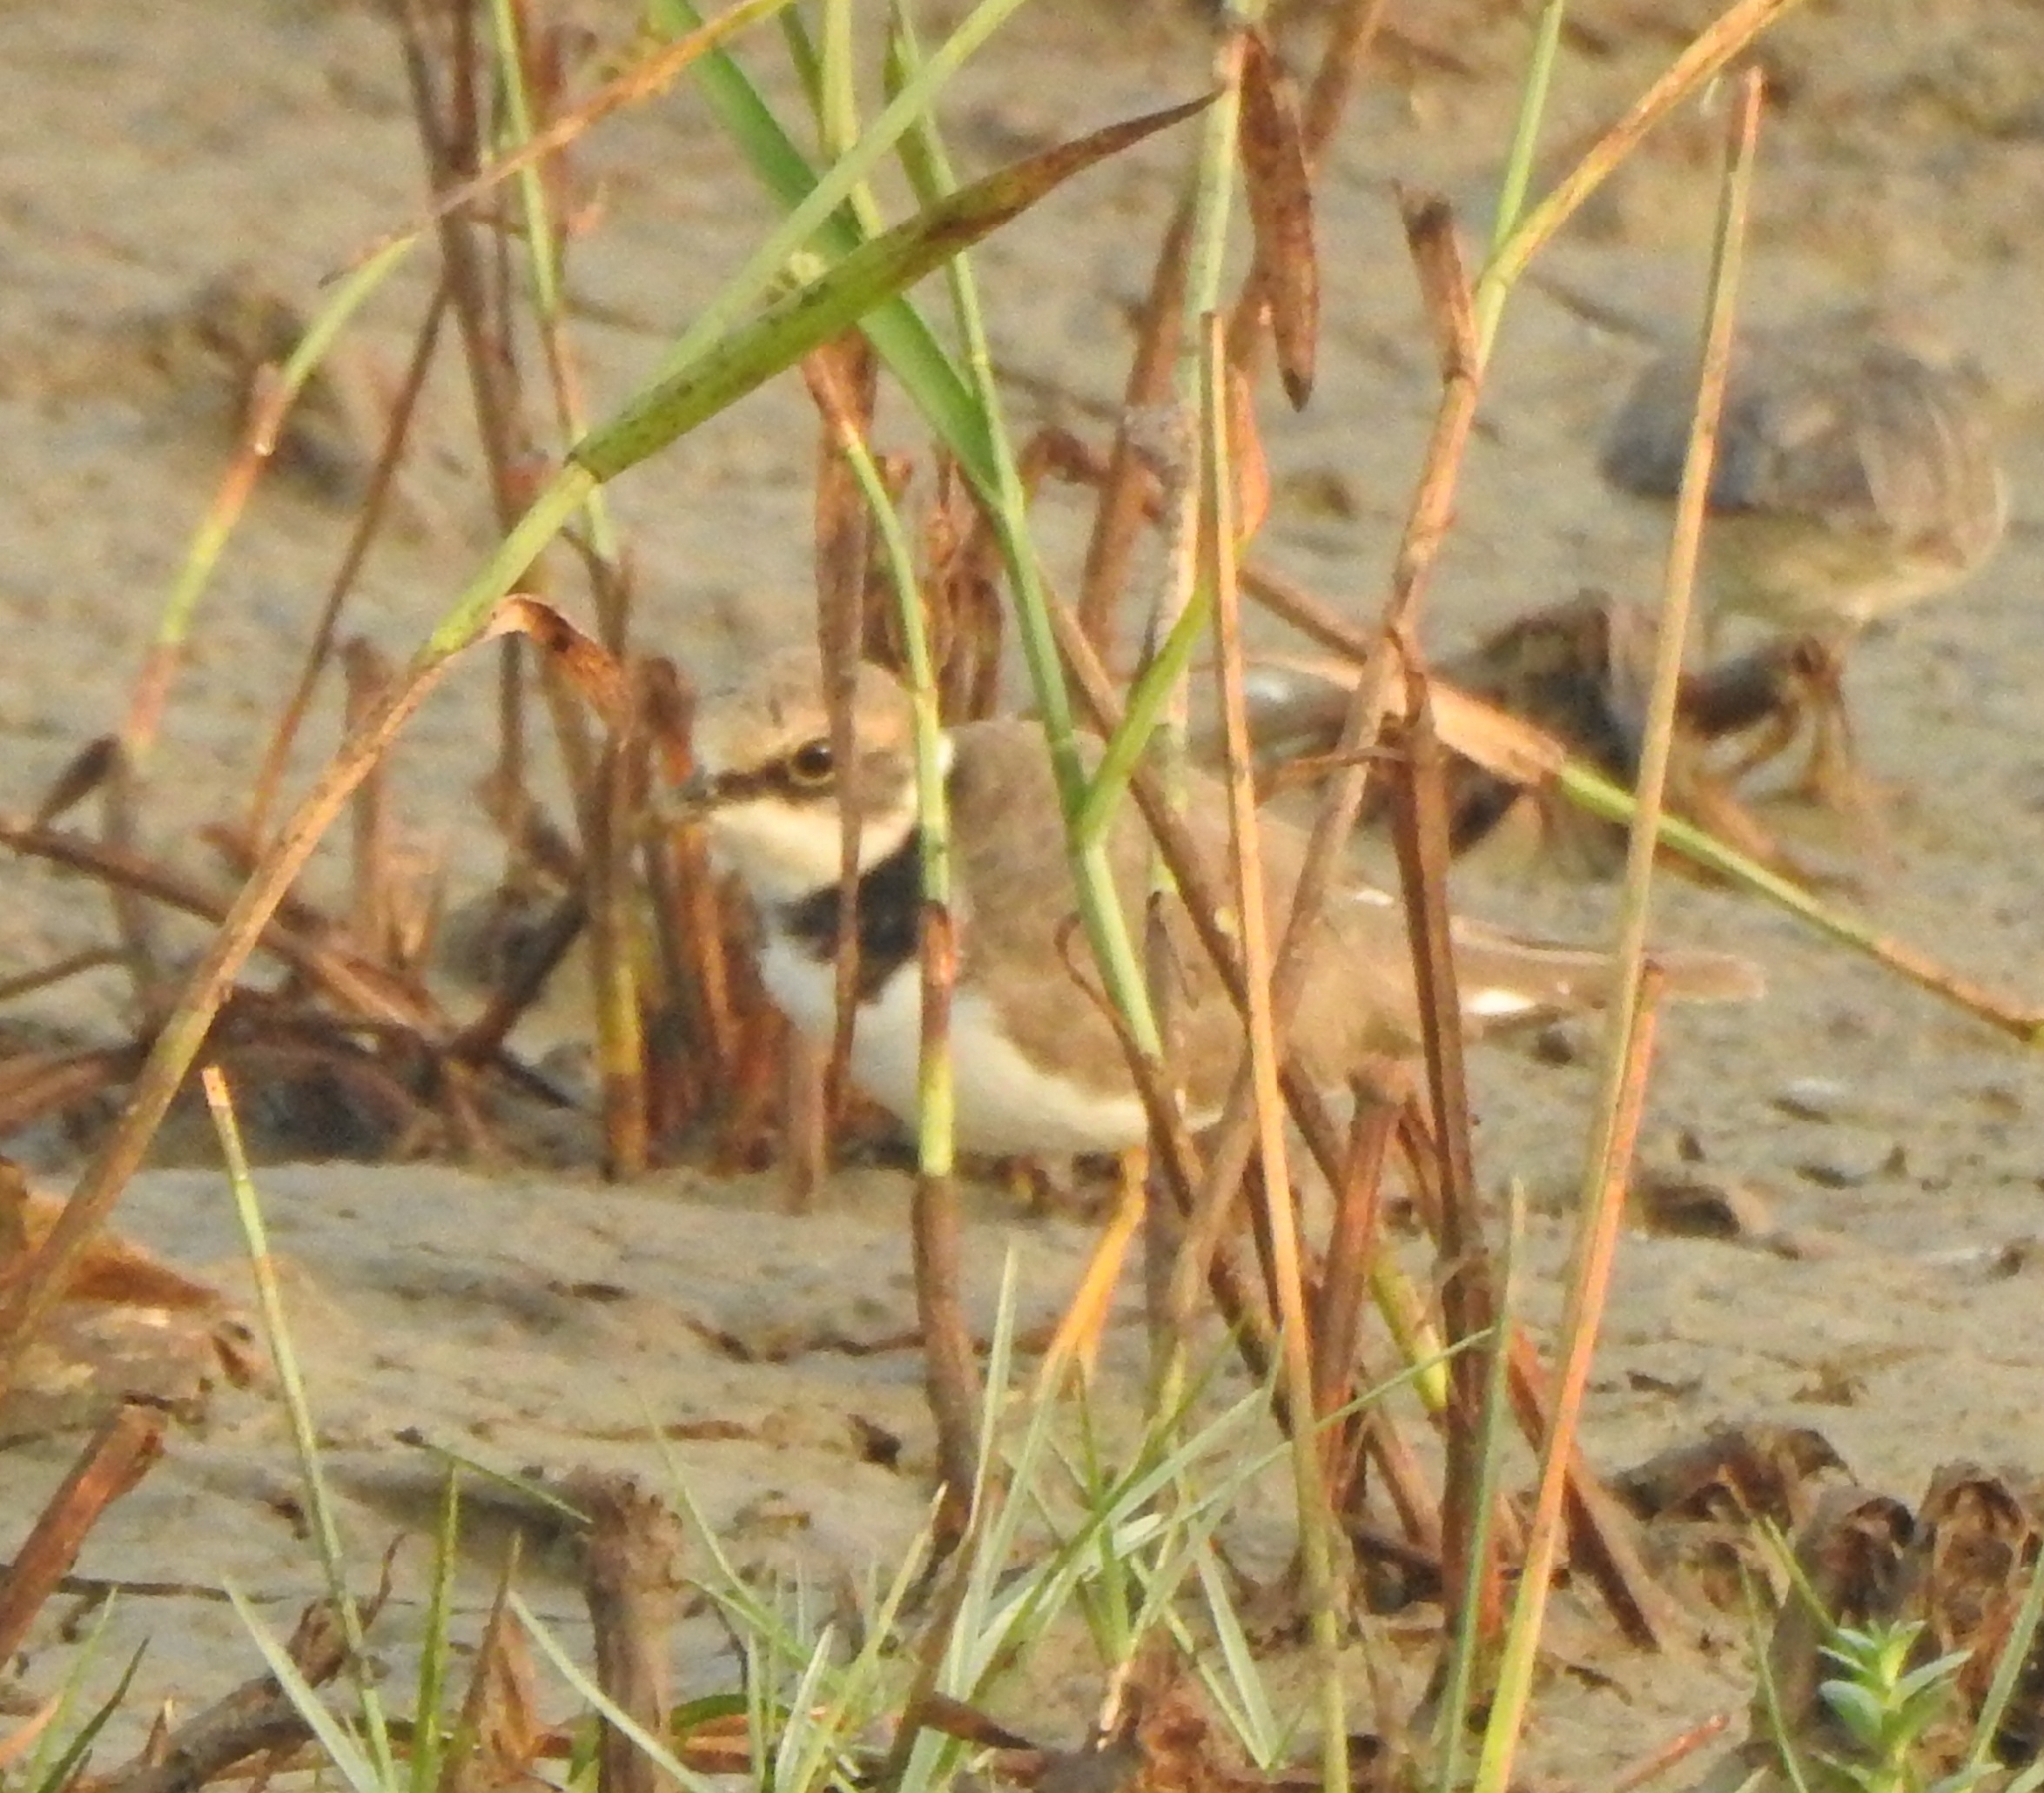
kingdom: Animalia
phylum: Chordata
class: Aves
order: Charadriiformes
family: Charadriidae
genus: Charadrius
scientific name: Charadrius dubius
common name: Little ringed plover
